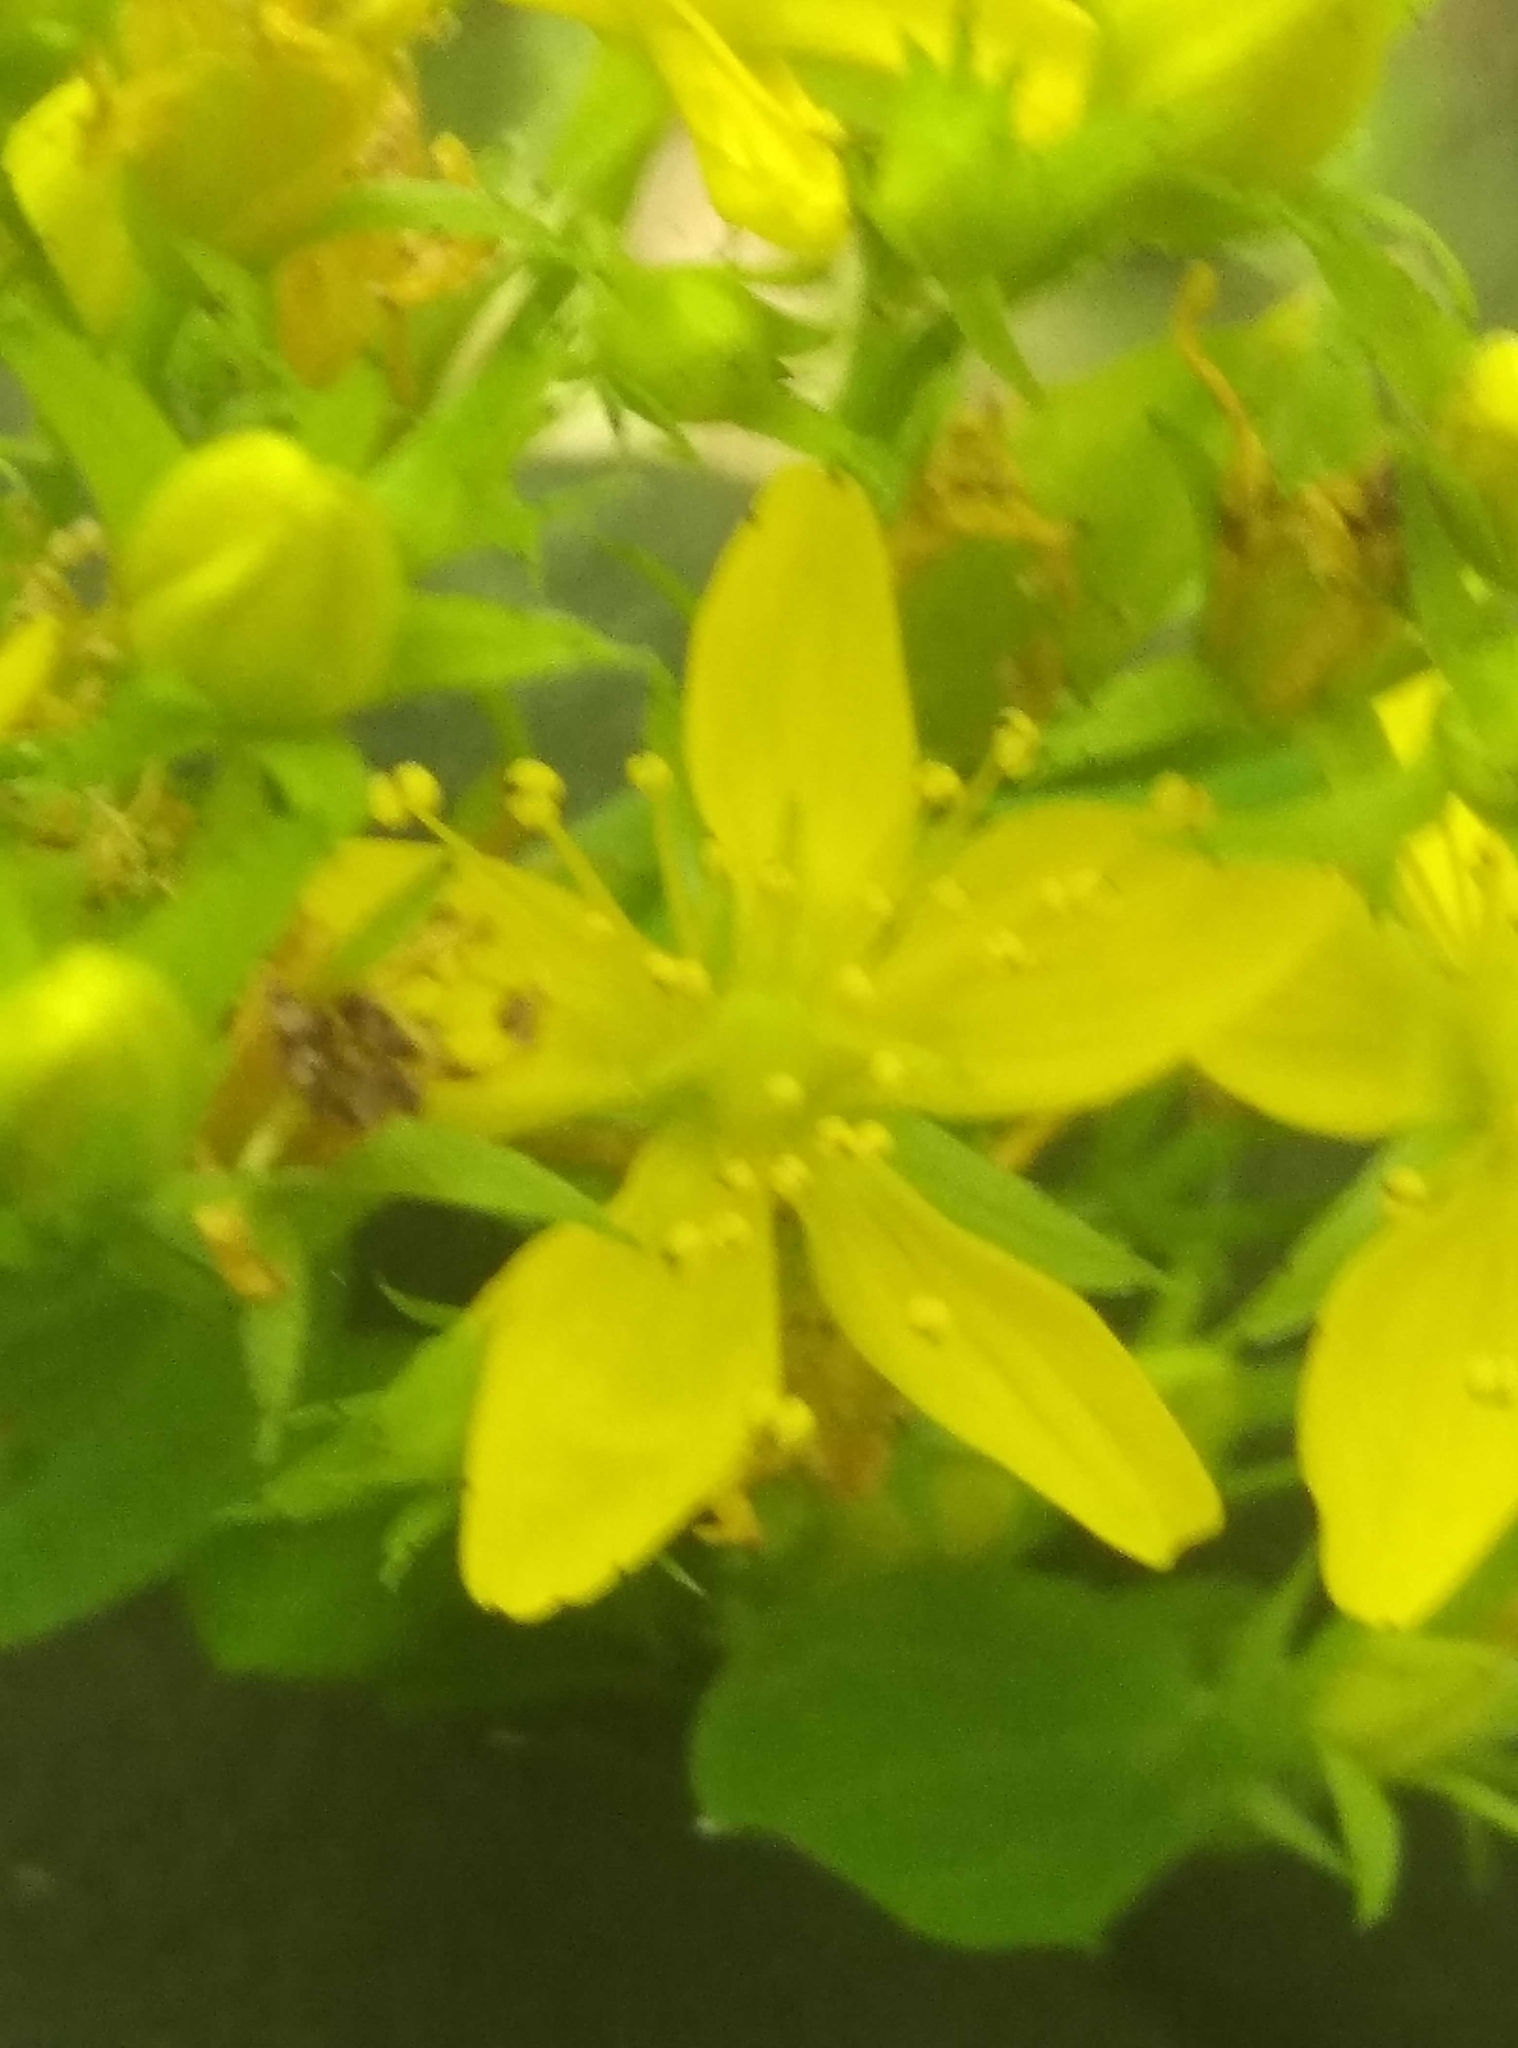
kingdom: Plantae
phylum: Tracheophyta
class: Magnoliopsida
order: Malpighiales
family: Hypericaceae
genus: Hypericum
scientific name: Hypericum perforatum
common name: Common st. johnswort
